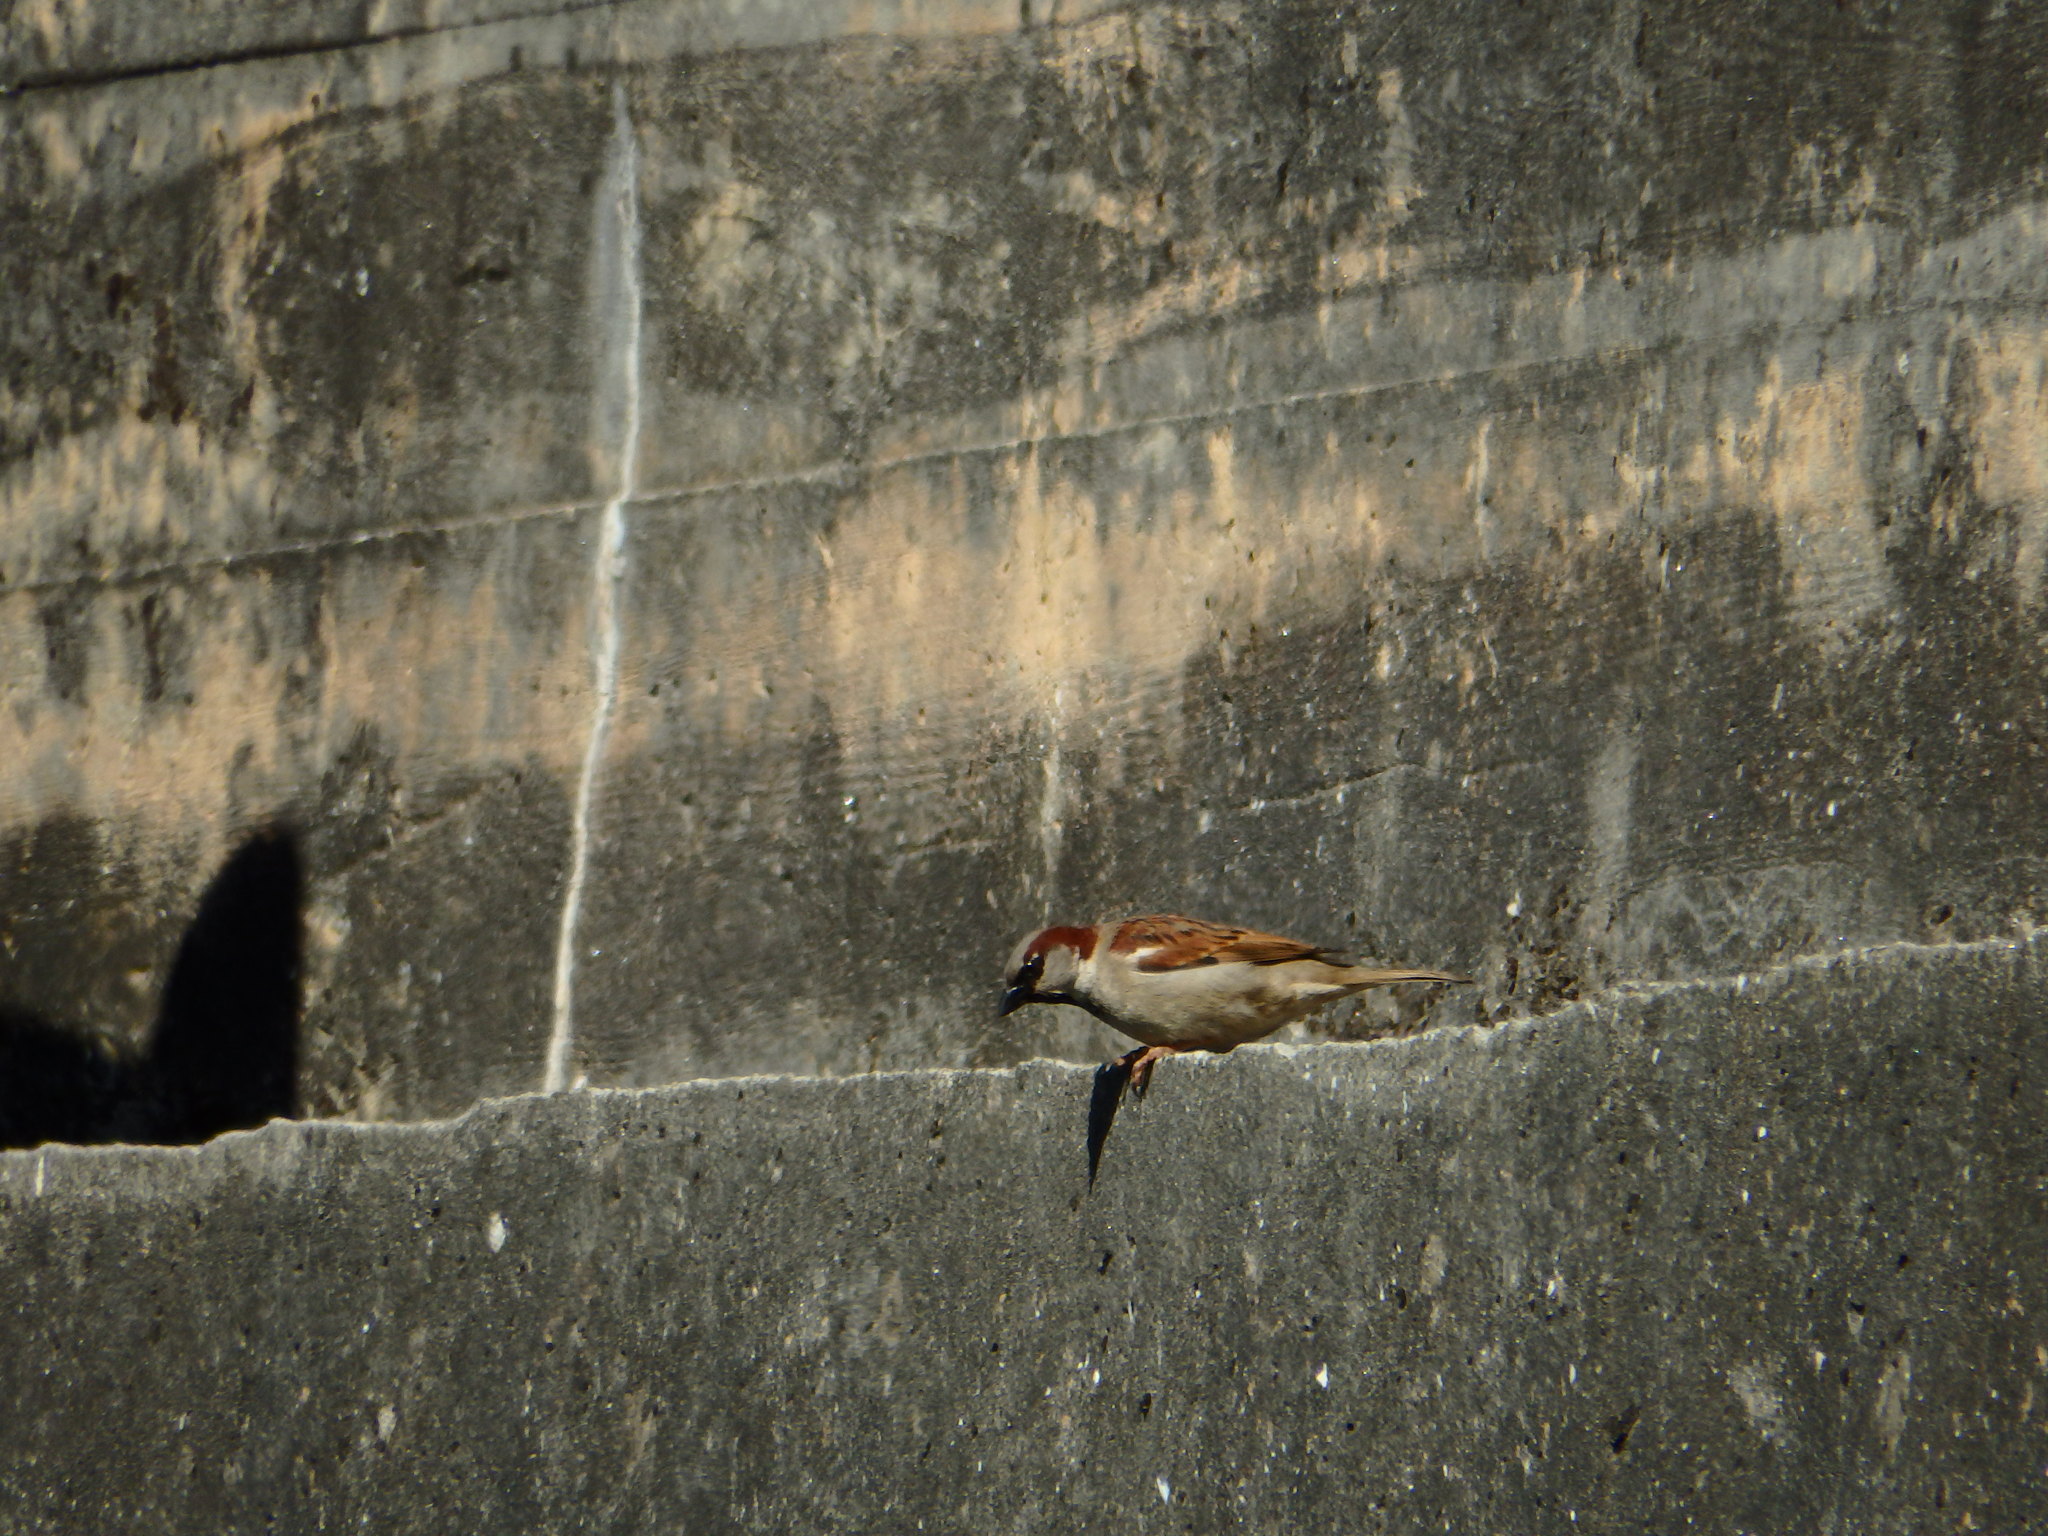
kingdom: Animalia
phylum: Chordata
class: Aves
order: Passeriformes
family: Passeridae
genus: Passer
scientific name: Passer domesticus
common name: House sparrow
